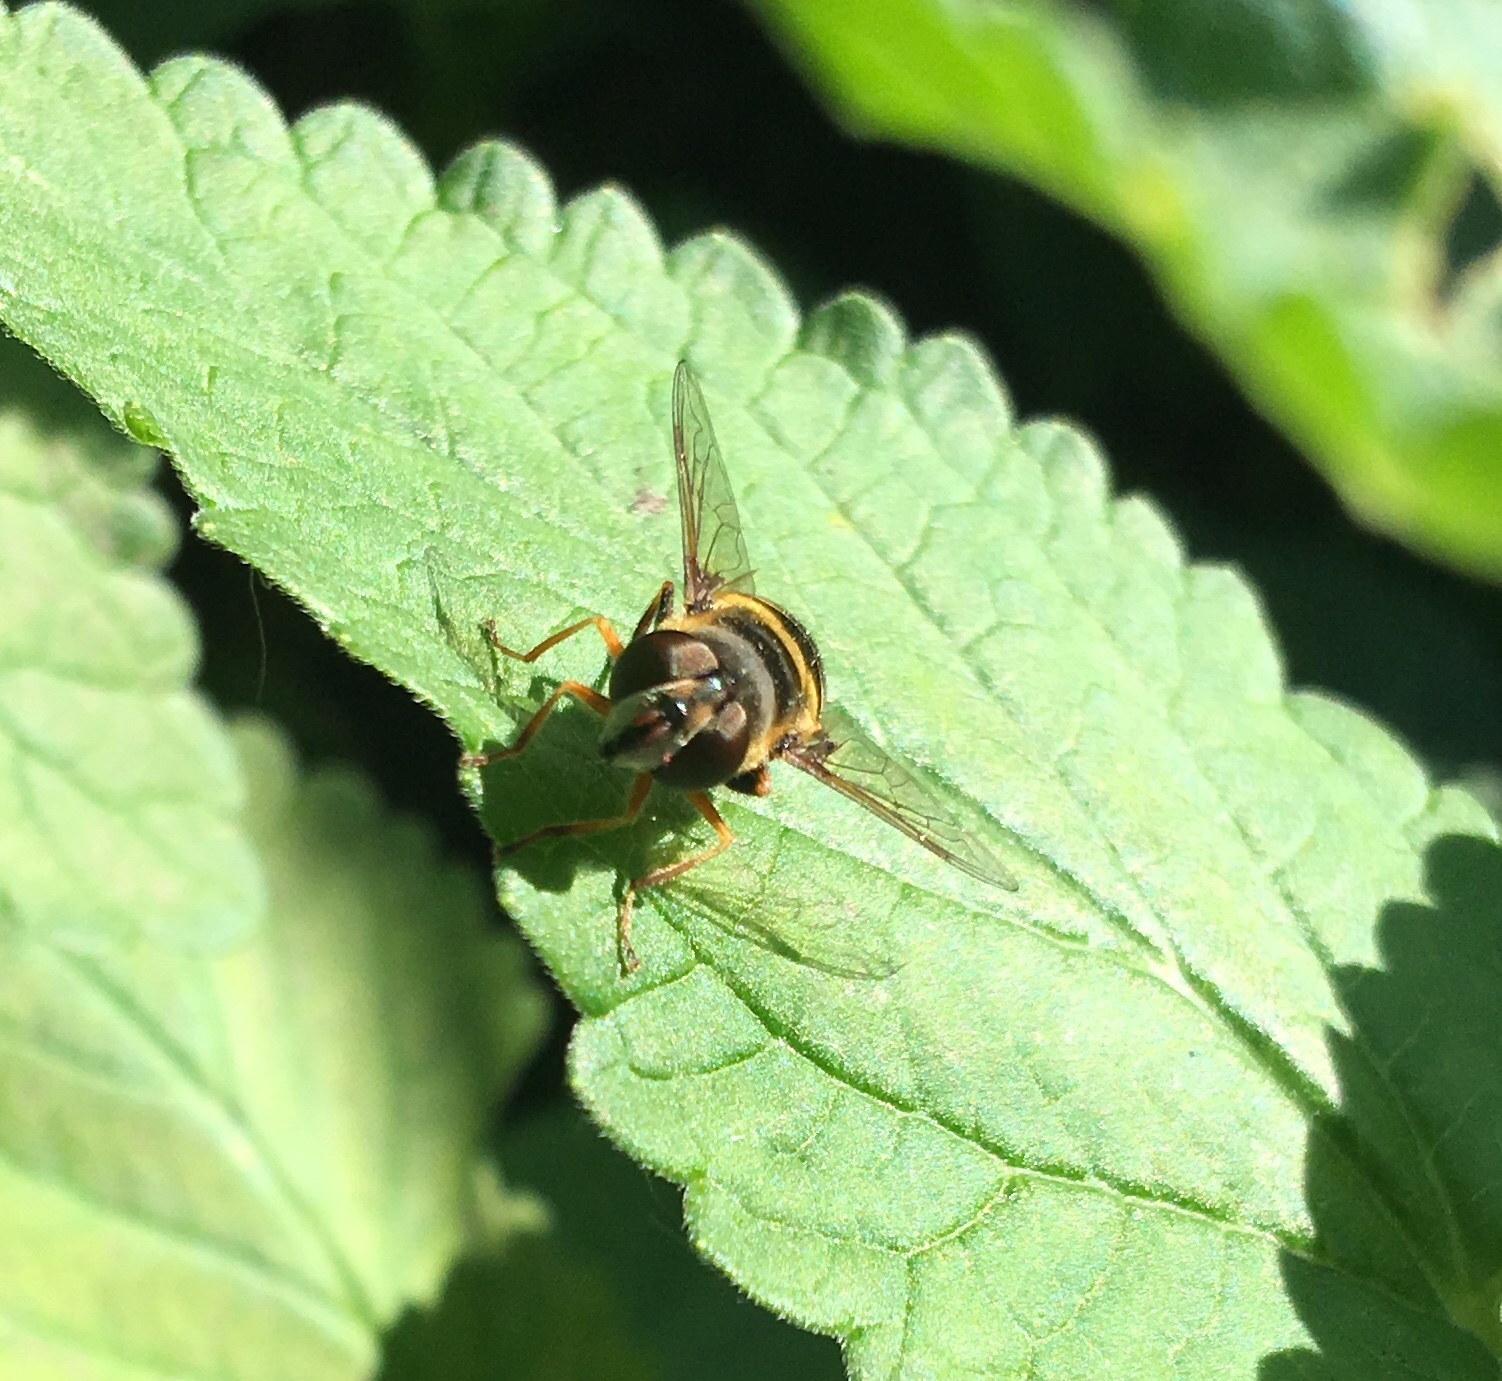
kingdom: Animalia
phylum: Arthropoda
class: Insecta
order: Diptera
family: Syrphidae
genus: Eristalis
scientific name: Eristalis transversa
